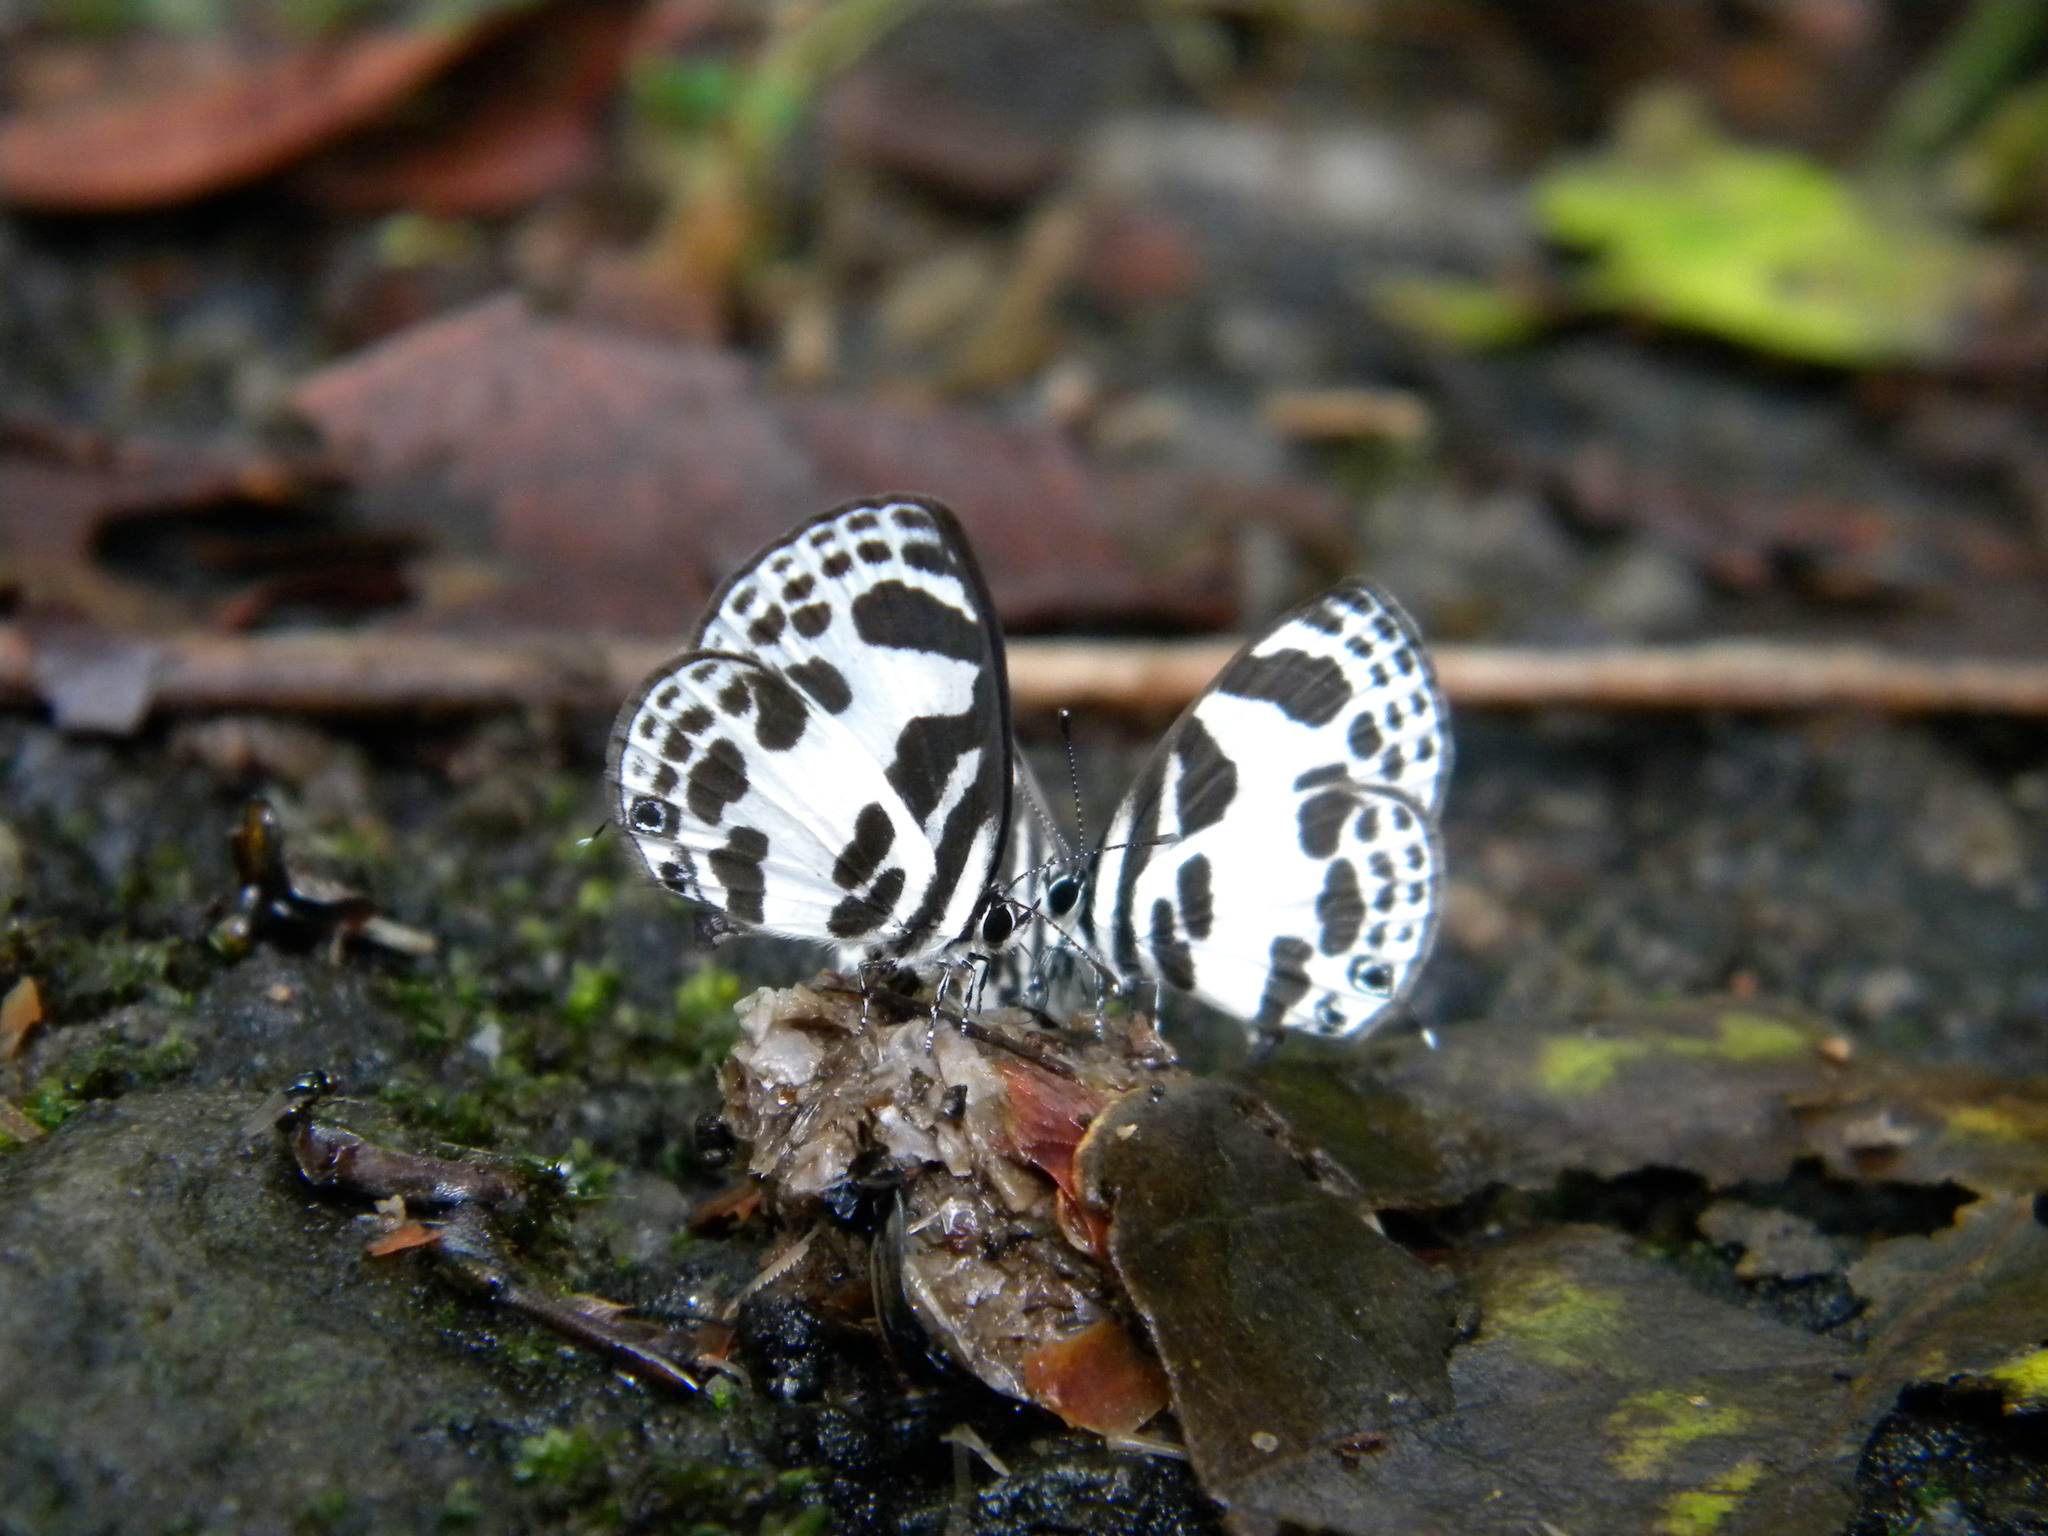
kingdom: Animalia
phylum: Arthropoda
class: Insecta
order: Lepidoptera
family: Lycaenidae
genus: Discolampa
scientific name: Discolampa ethion
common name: Banded blue pierrot
